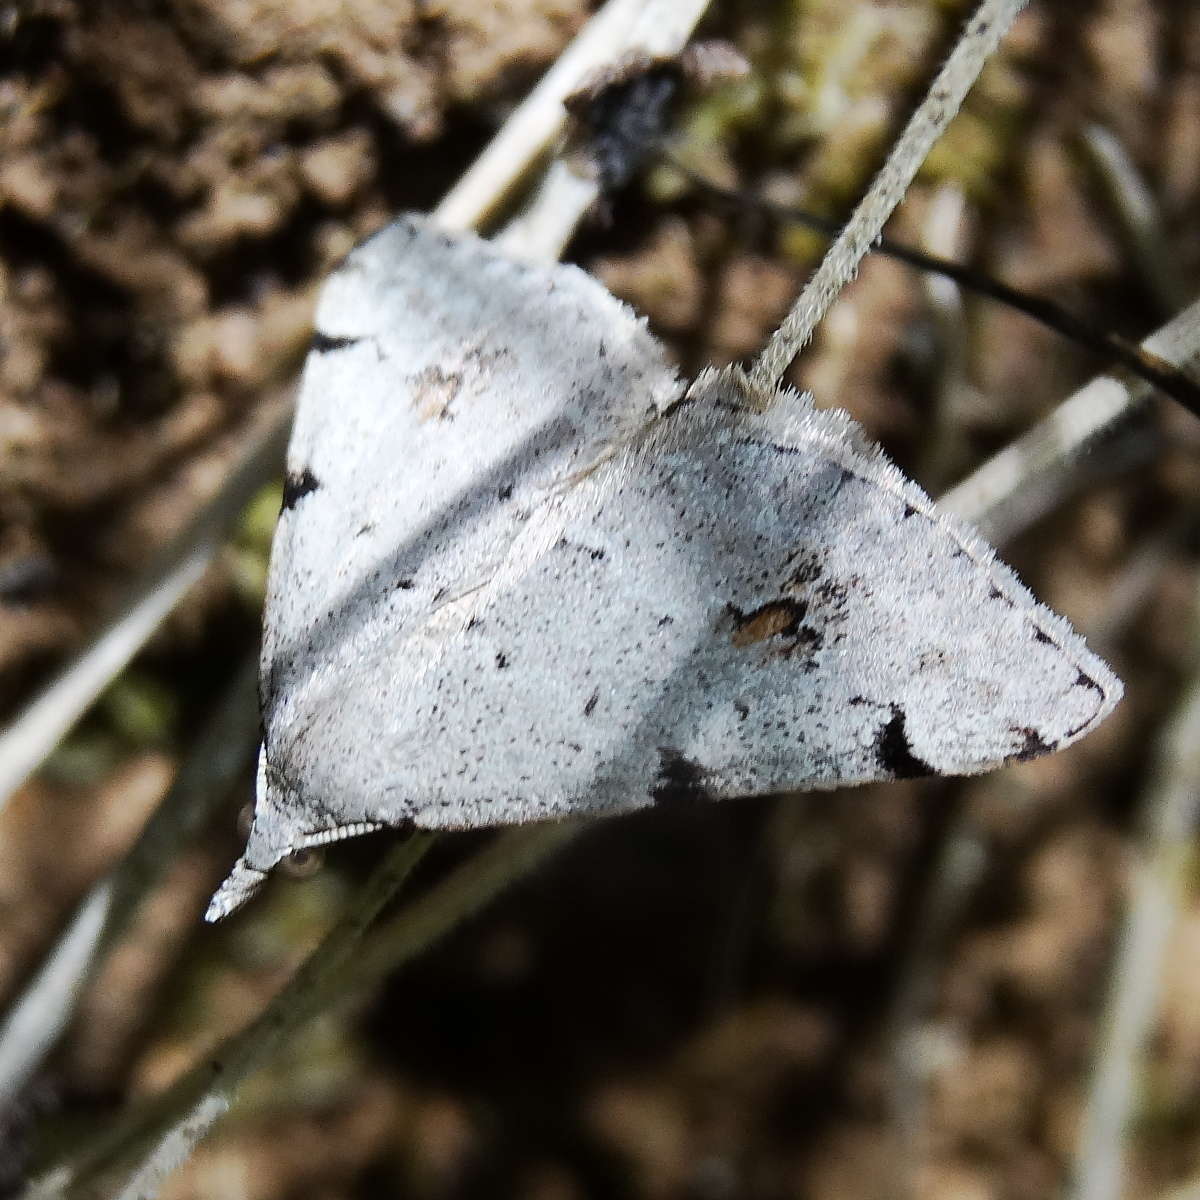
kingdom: Animalia
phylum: Arthropoda
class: Insecta
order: Lepidoptera
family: Geometridae
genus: Dichromodes
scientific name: Dichromodes estigmaria
